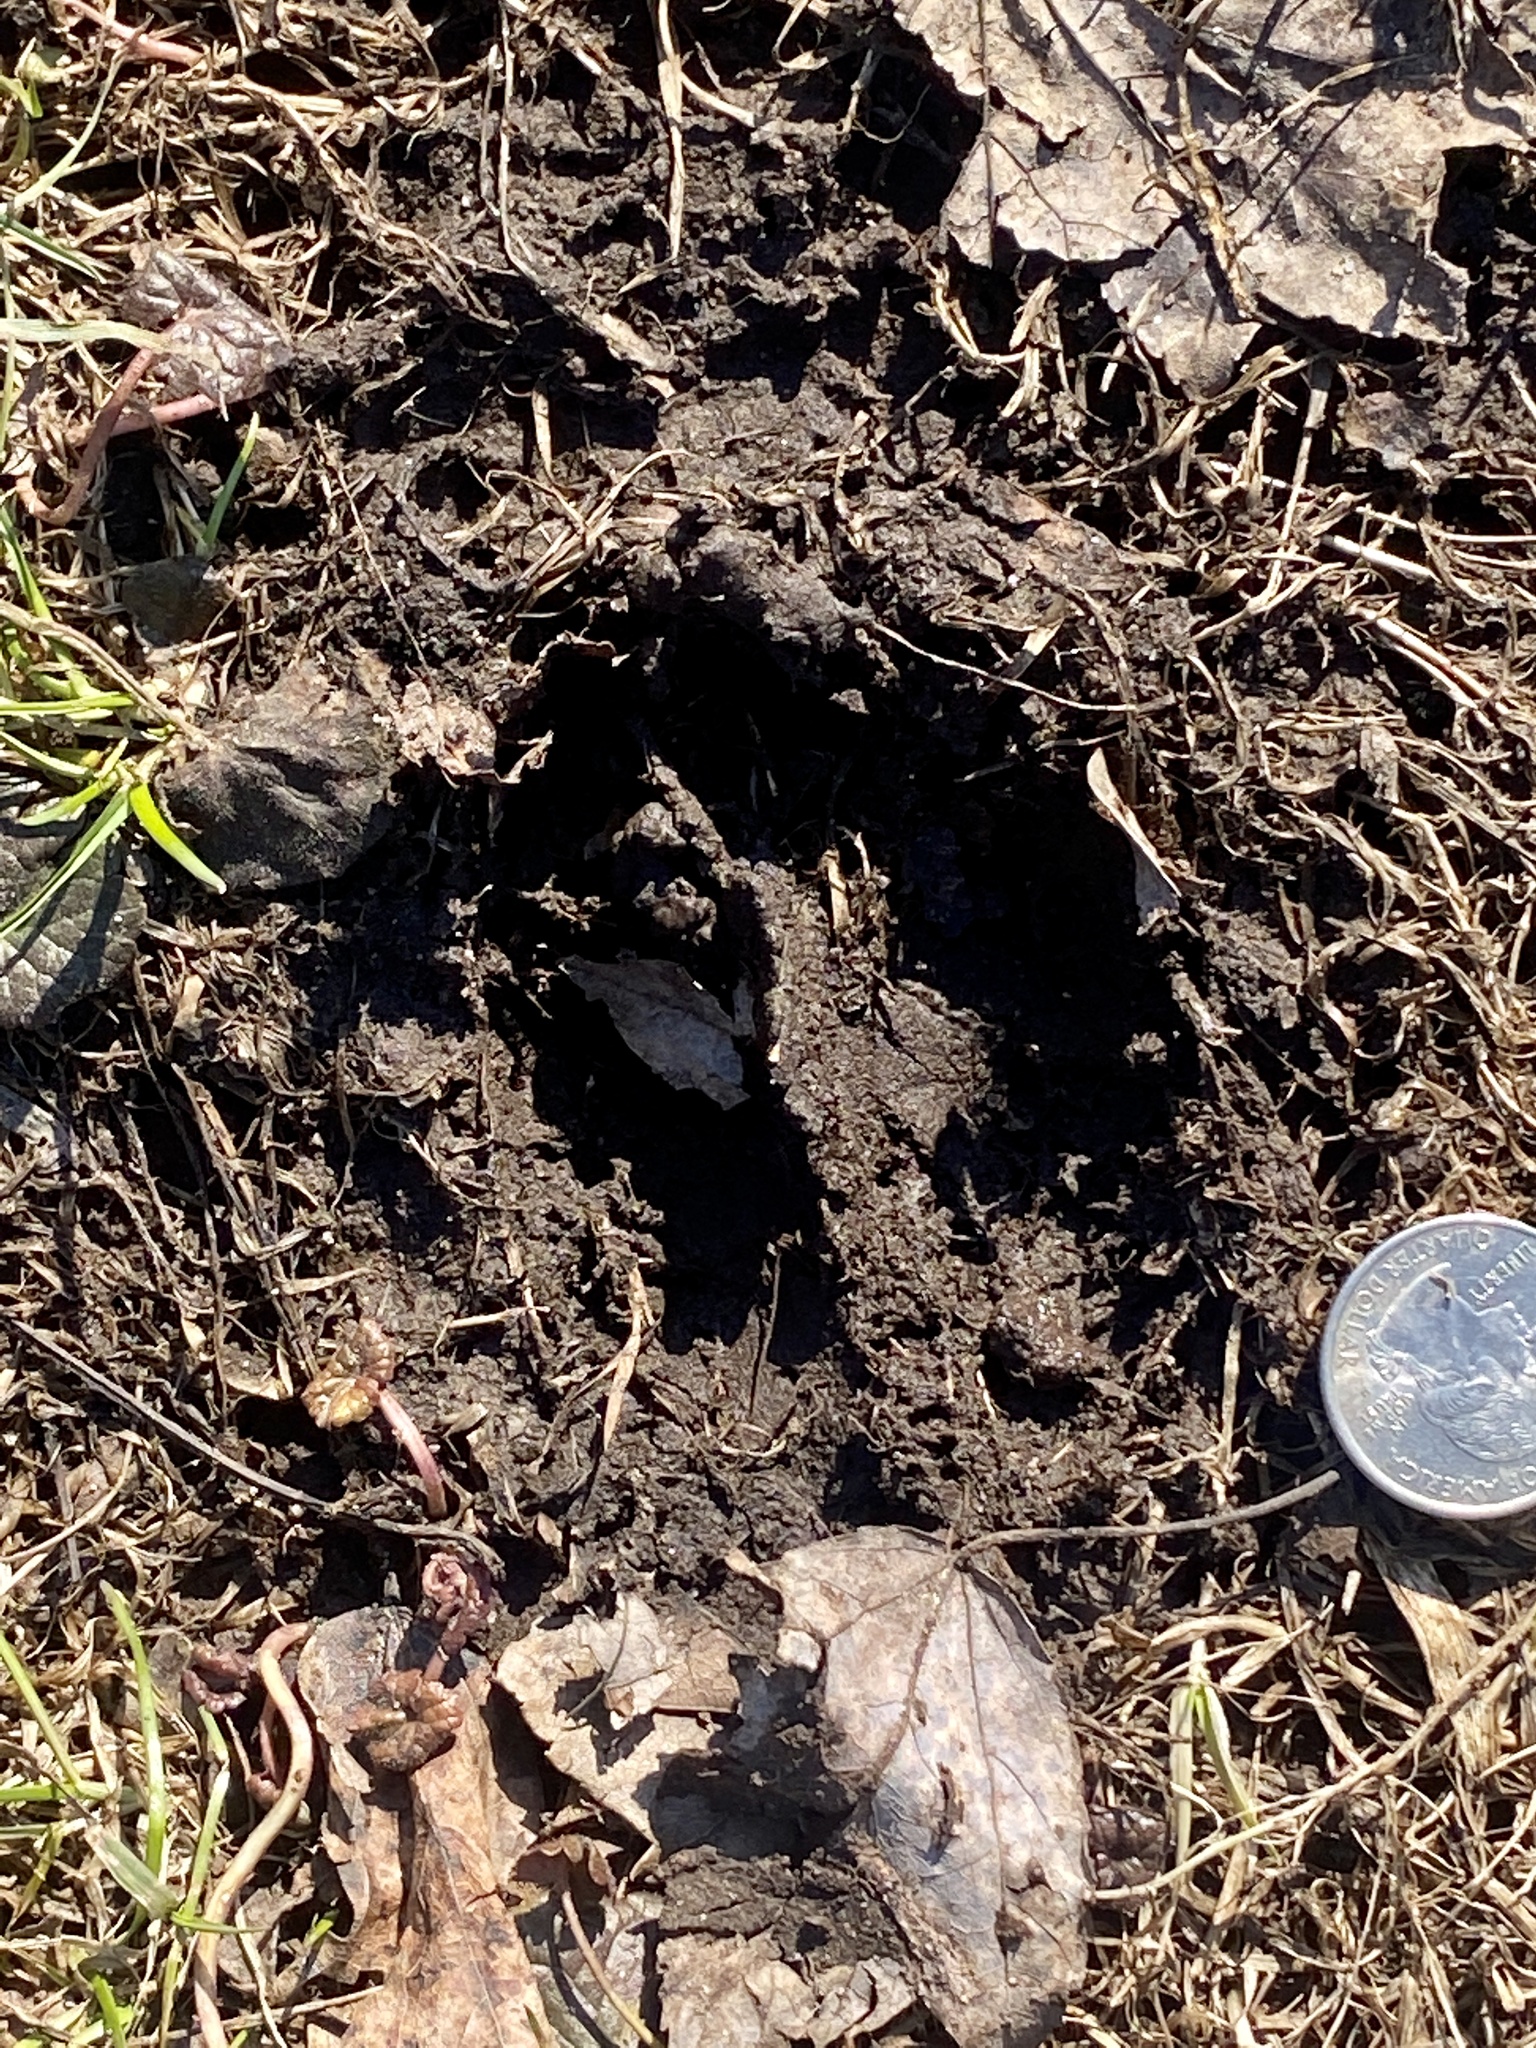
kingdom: Animalia
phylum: Chordata
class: Mammalia
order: Artiodactyla
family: Cervidae
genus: Odocoileus
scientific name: Odocoileus virginianus
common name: White-tailed deer
